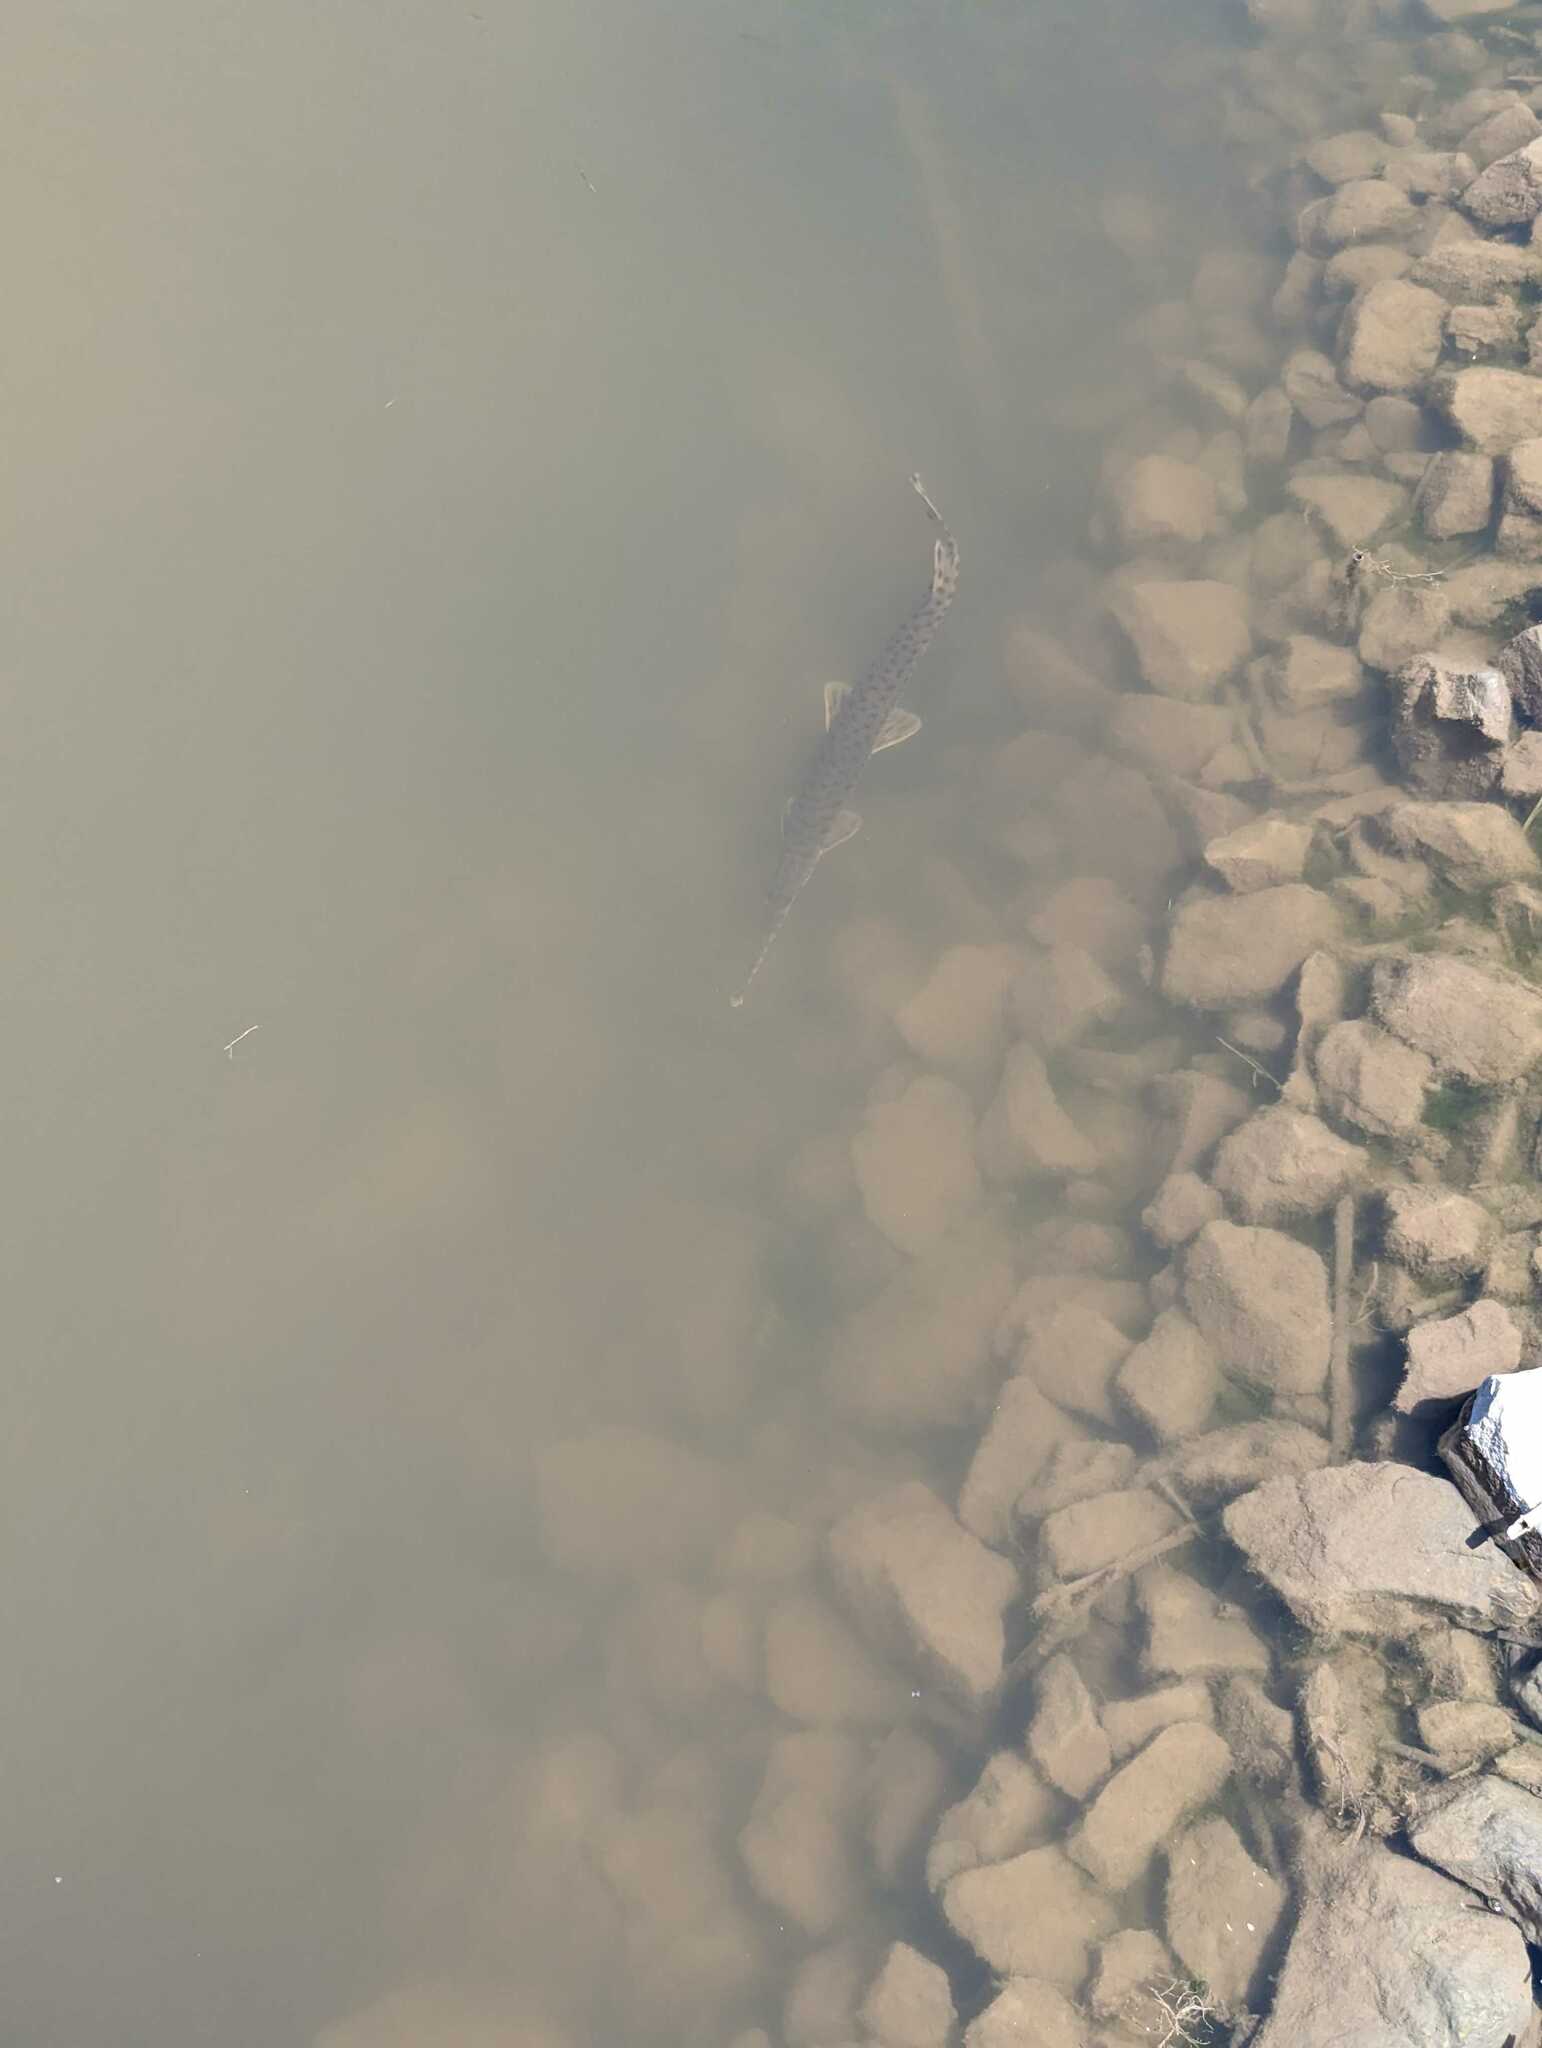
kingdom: Animalia
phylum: Chordata
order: Lepisosteiformes
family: Lepisosteidae
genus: Lepisosteus
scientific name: Lepisosteus osseus
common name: Longnose gar
